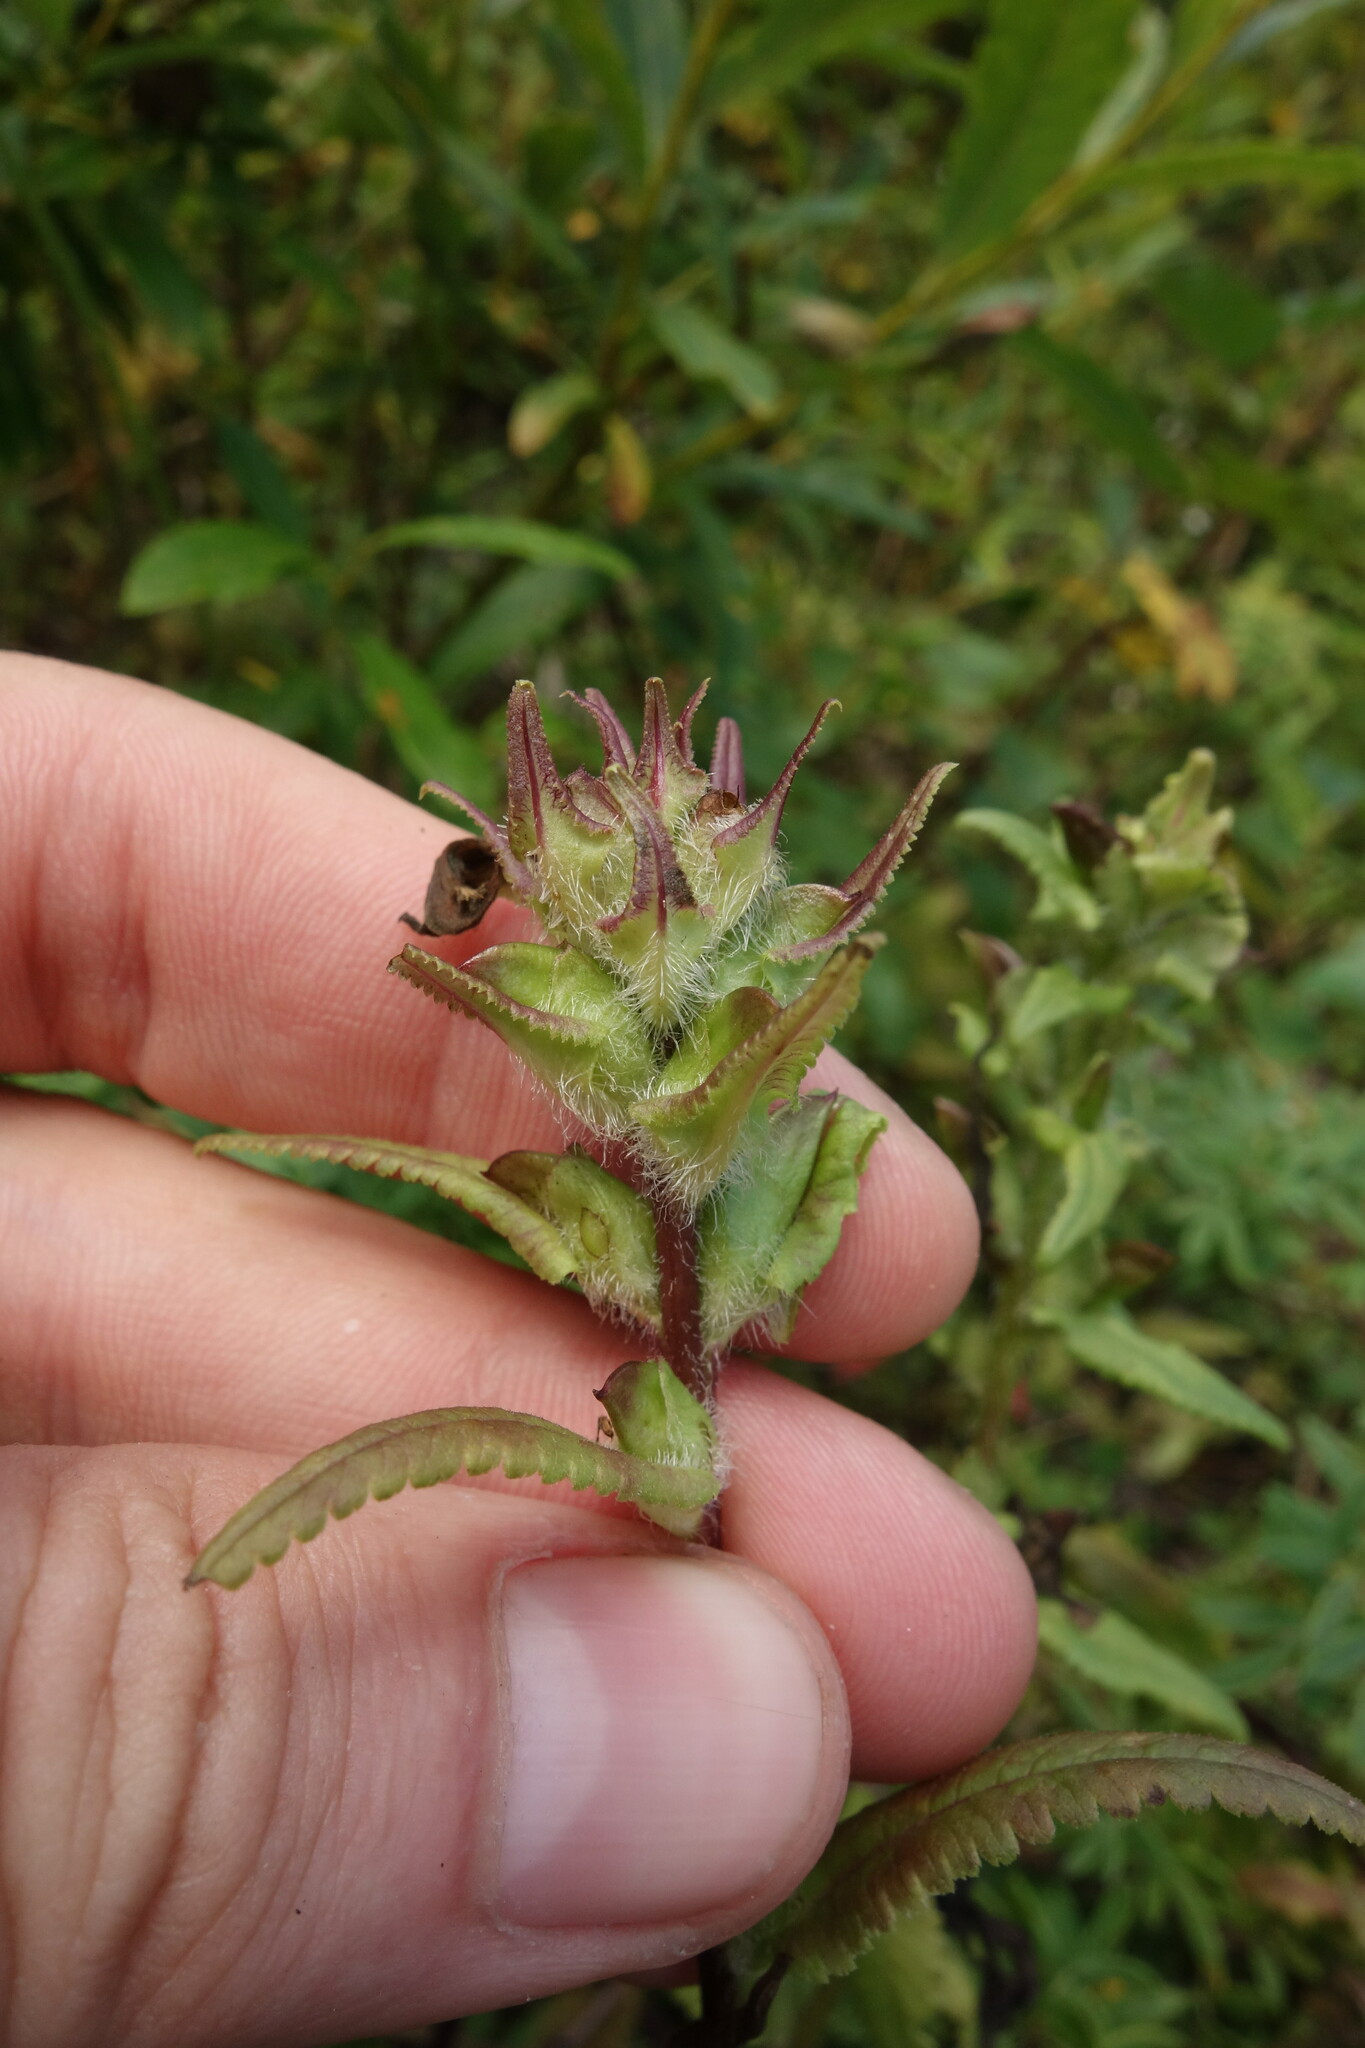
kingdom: Plantae
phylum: Tracheophyta
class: Magnoliopsida
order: Lamiales
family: Orobanchaceae
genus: Pedicularis
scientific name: Pedicularis resupinata
